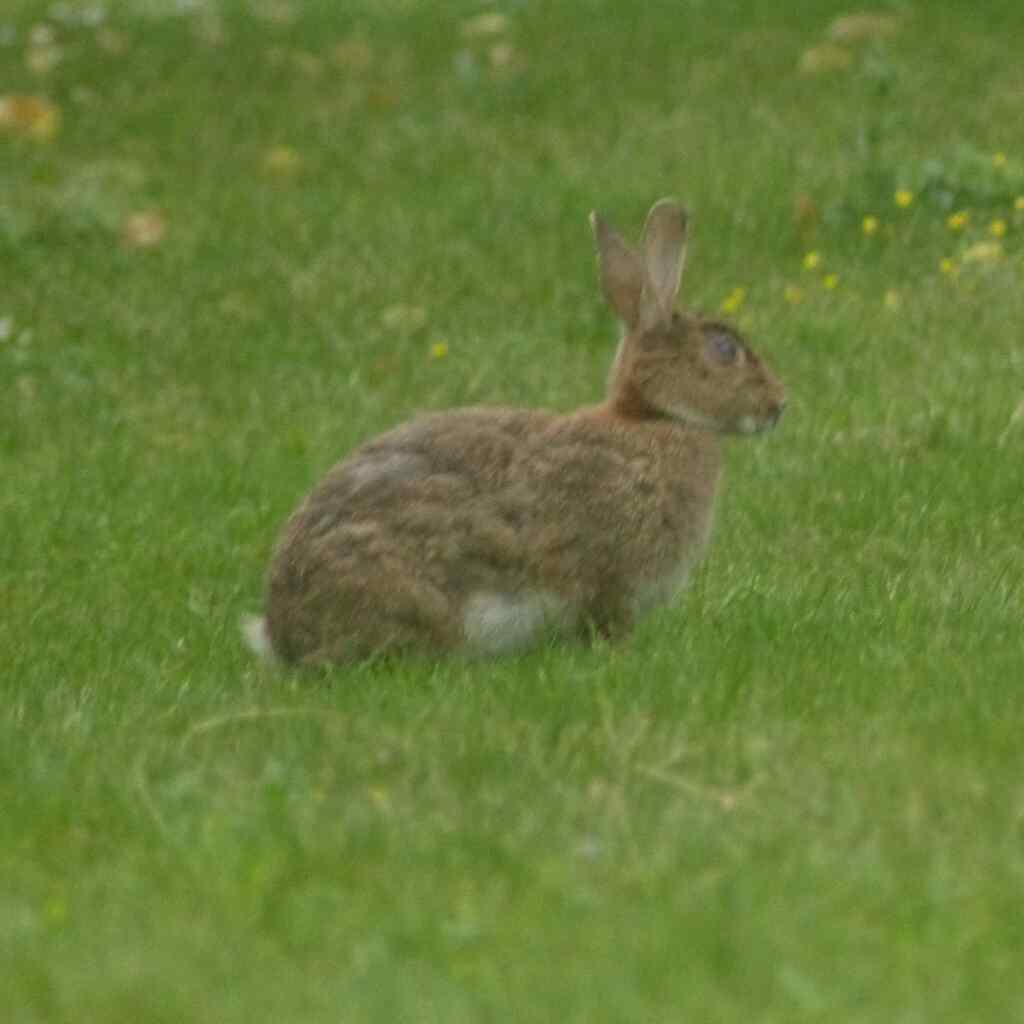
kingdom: Animalia
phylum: Chordata
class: Mammalia
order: Lagomorpha
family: Leporidae
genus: Oryctolagus
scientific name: Oryctolagus cuniculus
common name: European rabbit
